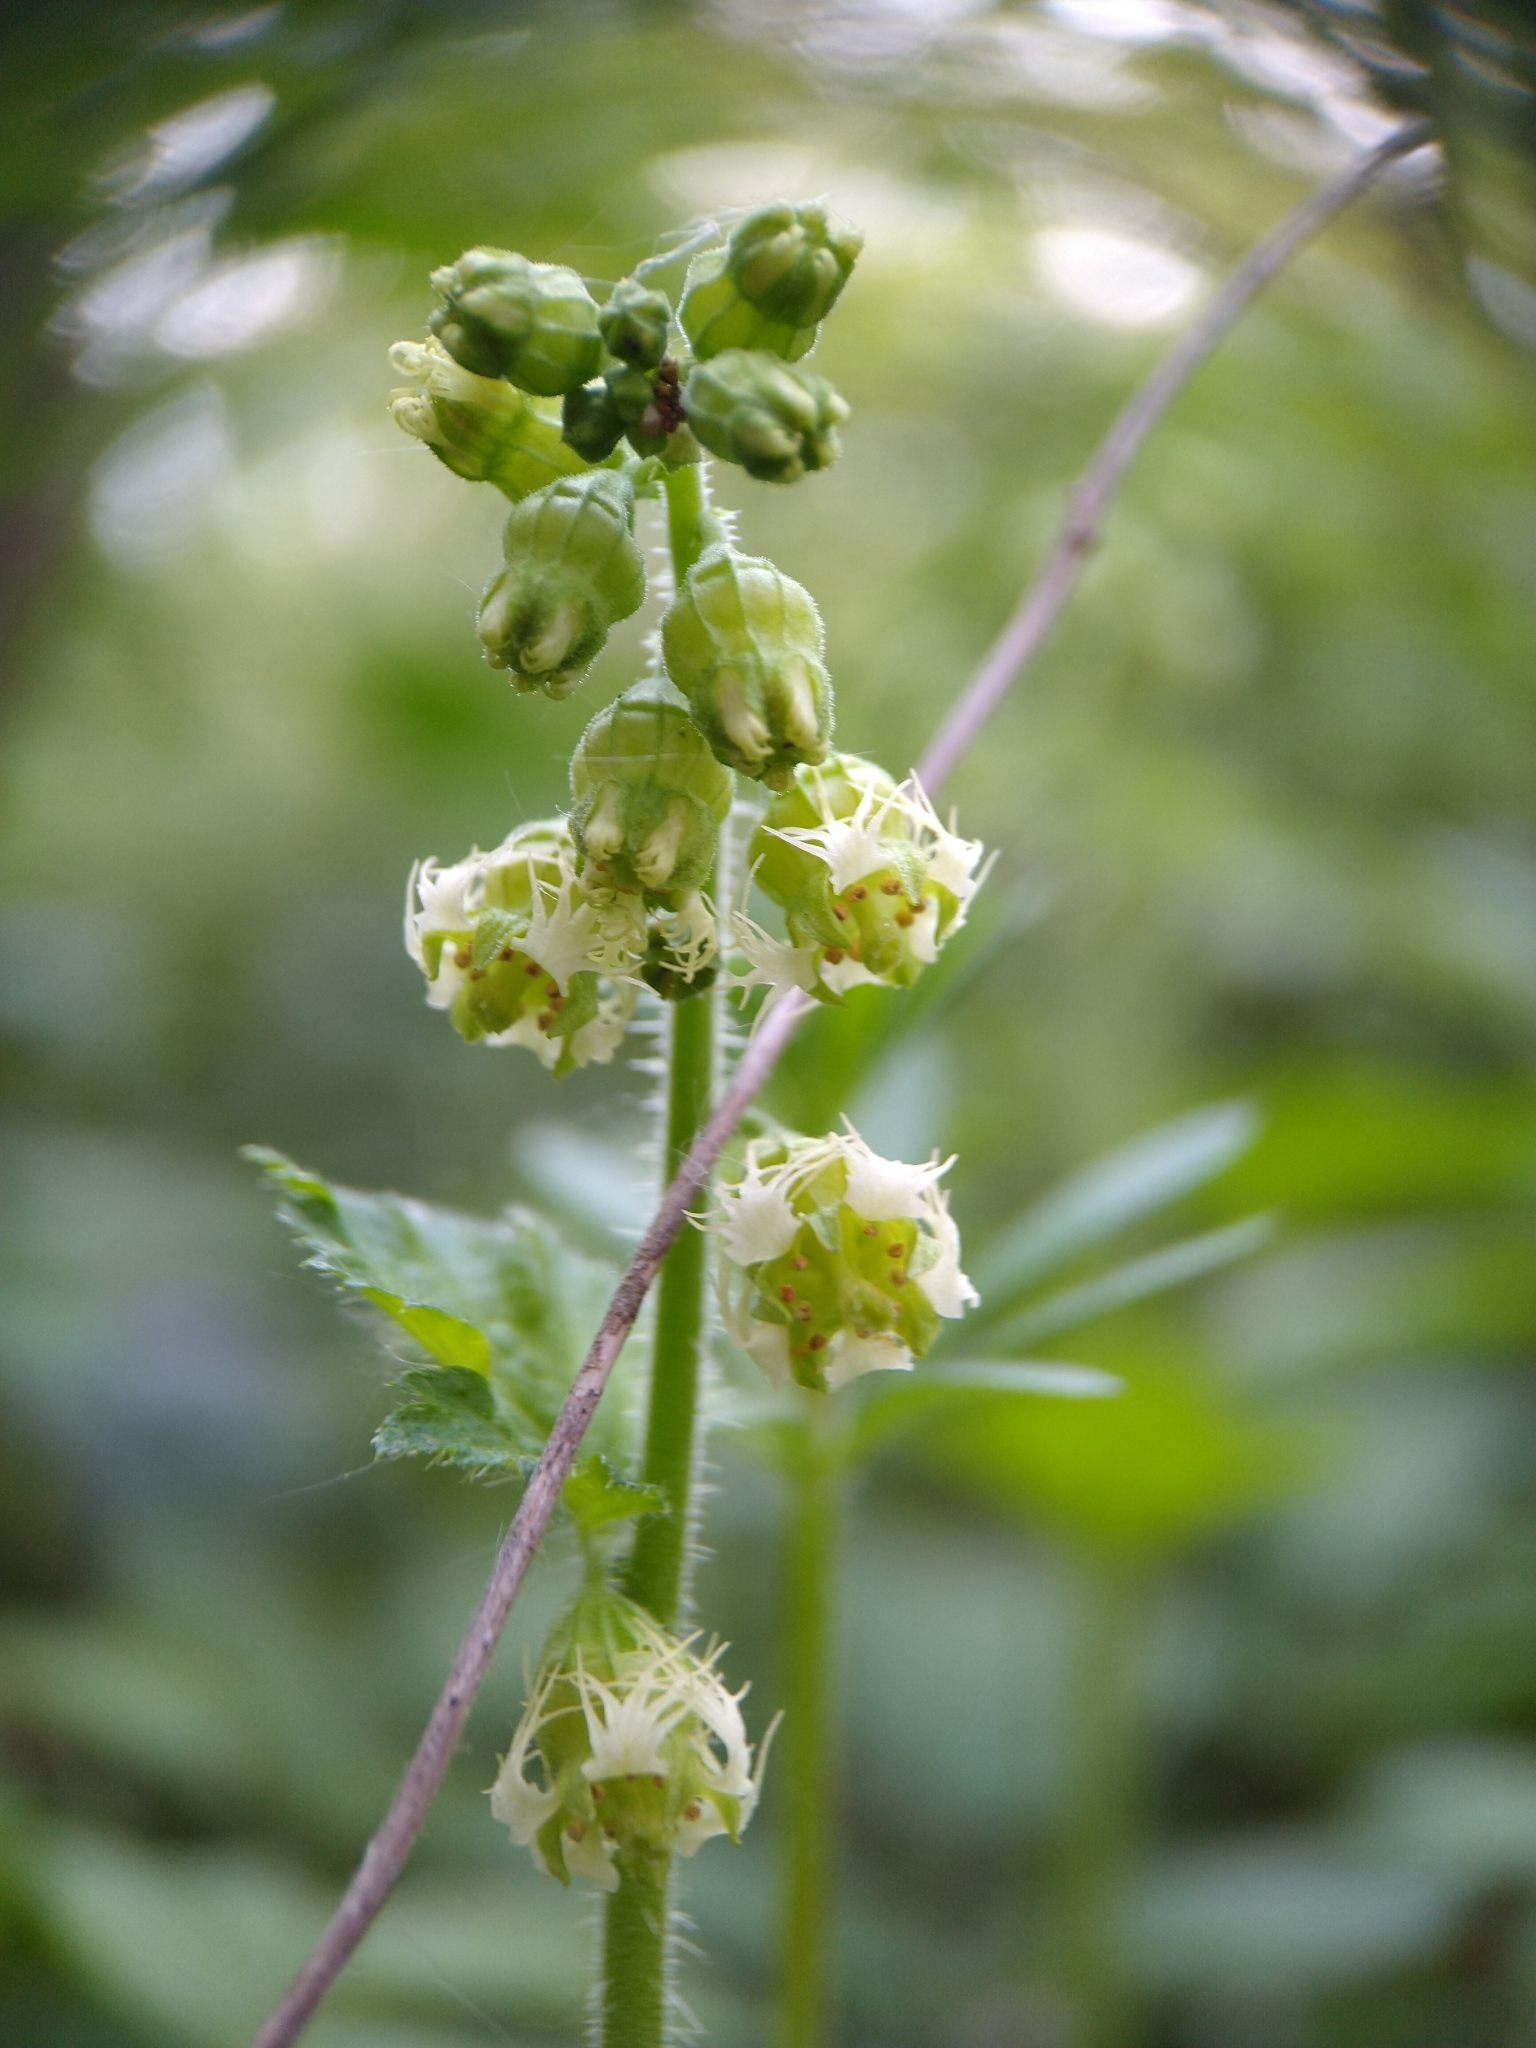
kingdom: Plantae
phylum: Tracheophyta
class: Magnoliopsida
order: Saxifragales
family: Saxifragaceae
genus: Tellima
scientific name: Tellima grandiflora
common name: Fringecups
